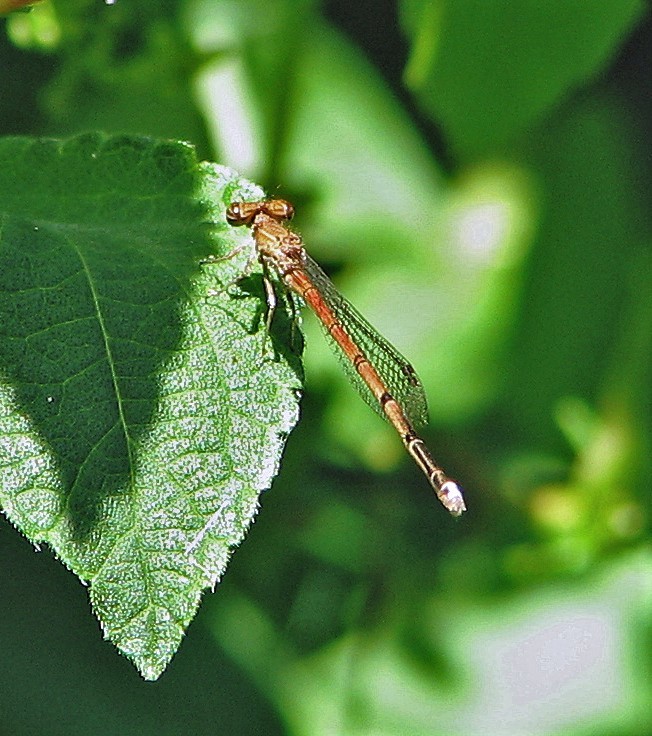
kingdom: Animalia
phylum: Arthropoda
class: Insecta
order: Odonata
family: Coenagrionidae
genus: Oxyagrion
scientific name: Oxyagrion terminale
